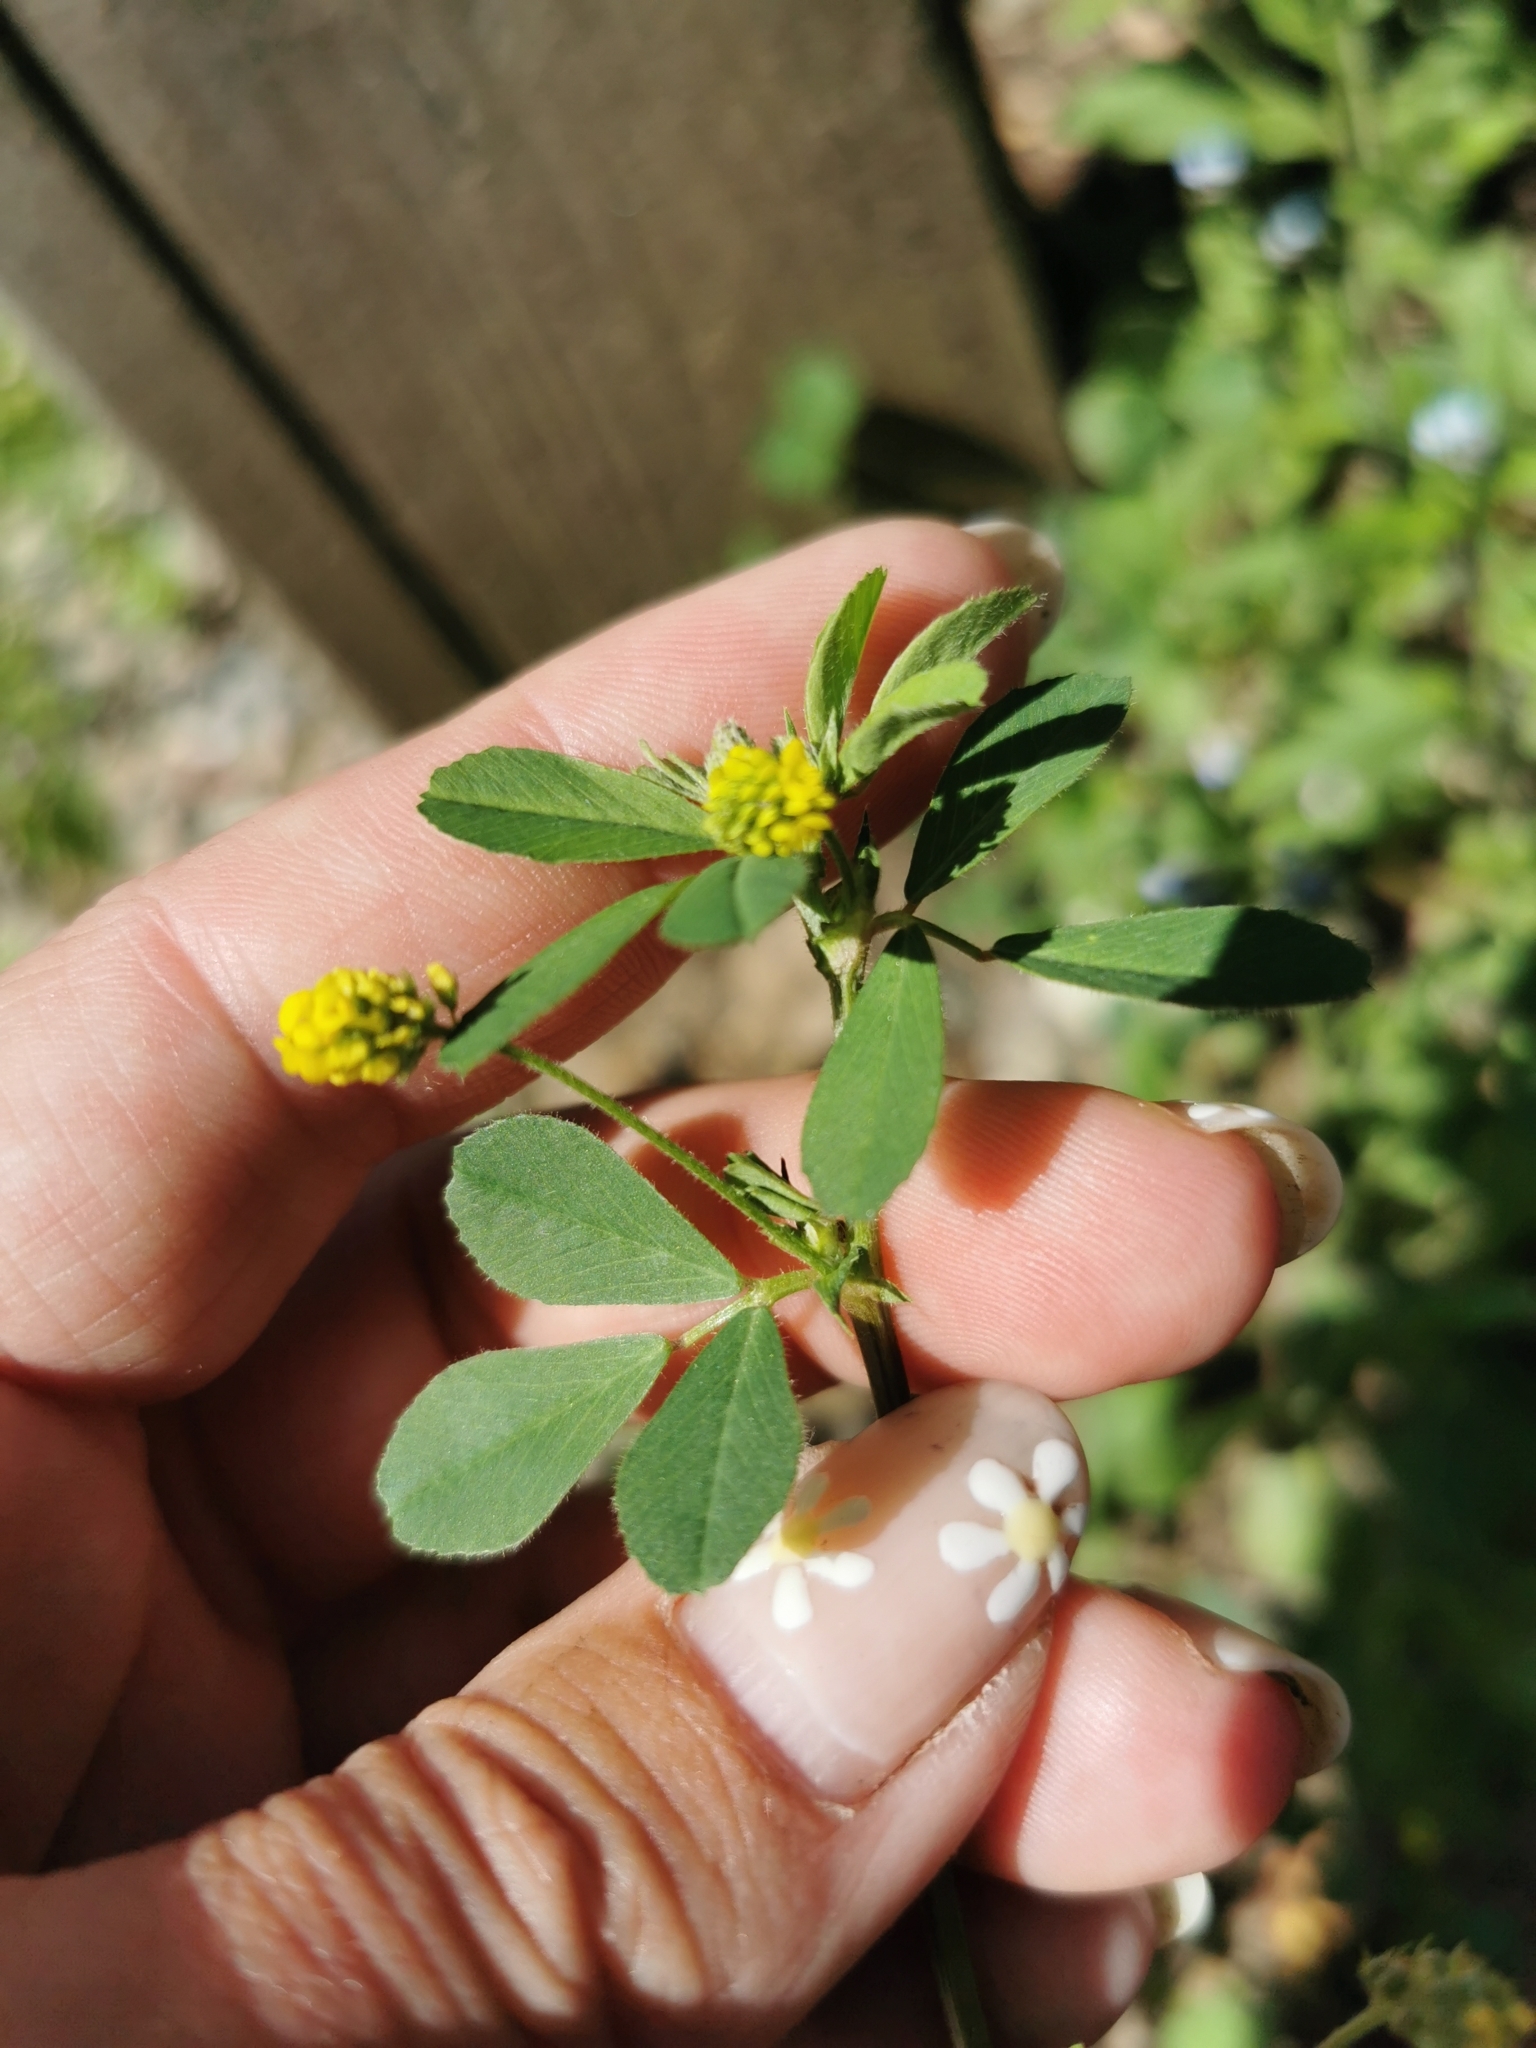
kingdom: Plantae
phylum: Tracheophyta
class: Magnoliopsida
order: Fabales
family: Fabaceae
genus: Medicago
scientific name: Medicago lupulina
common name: Black medick
